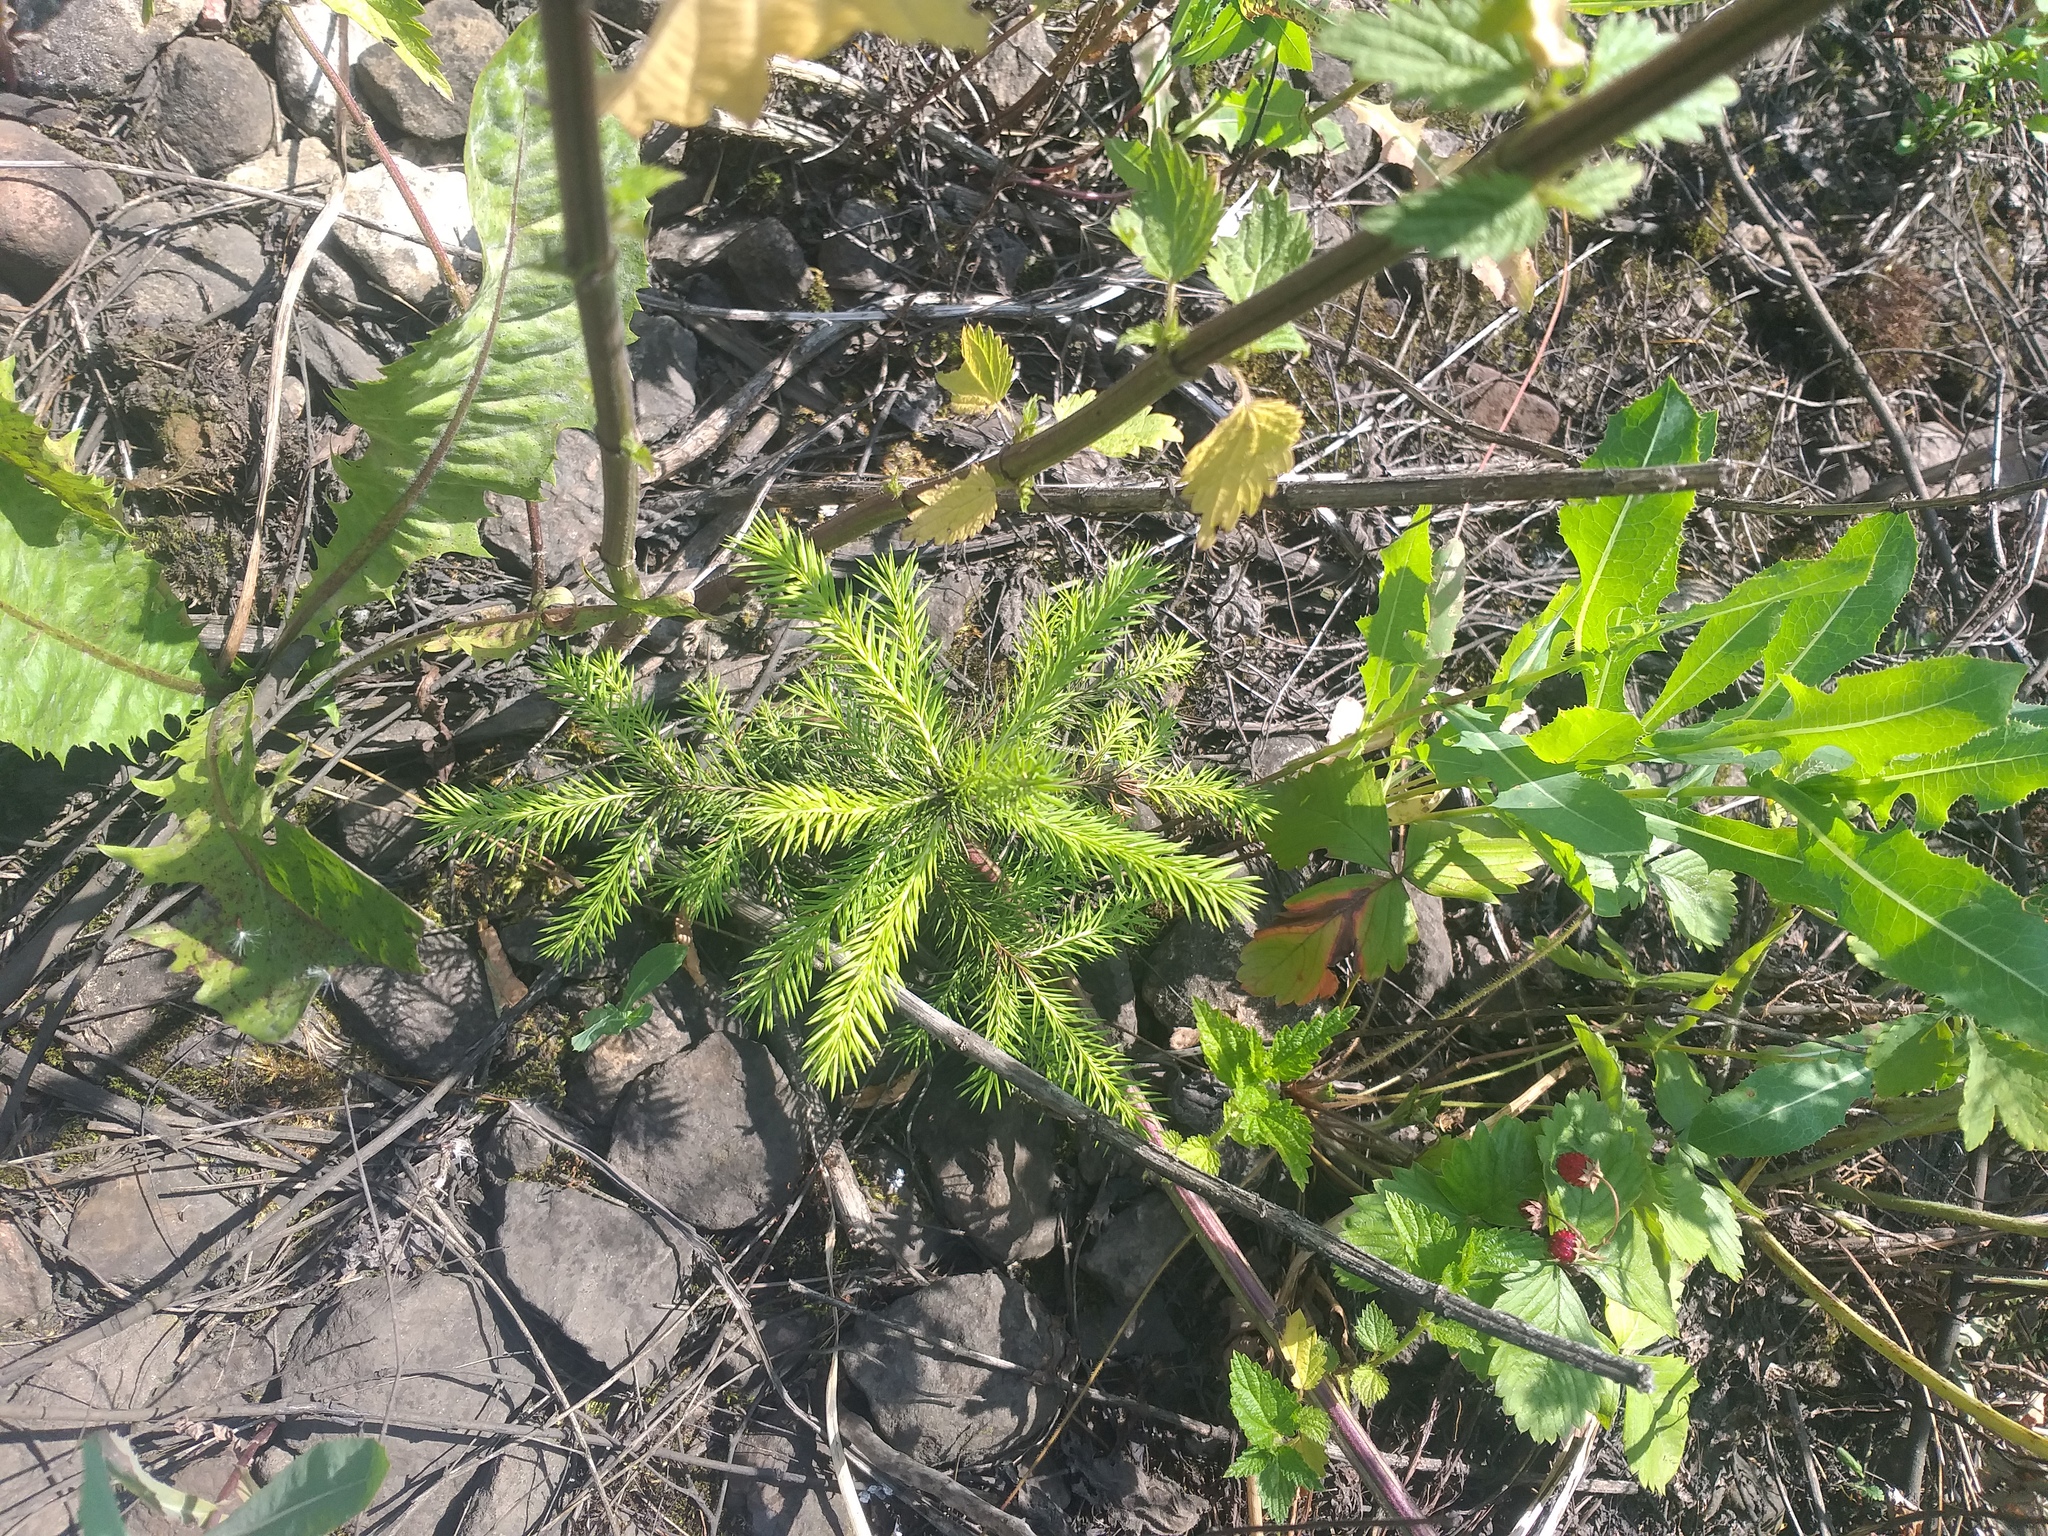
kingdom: Plantae
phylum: Tracheophyta
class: Pinopsida
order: Pinales
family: Pinaceae
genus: Picea
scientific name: Picea abies
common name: Norway spruce
